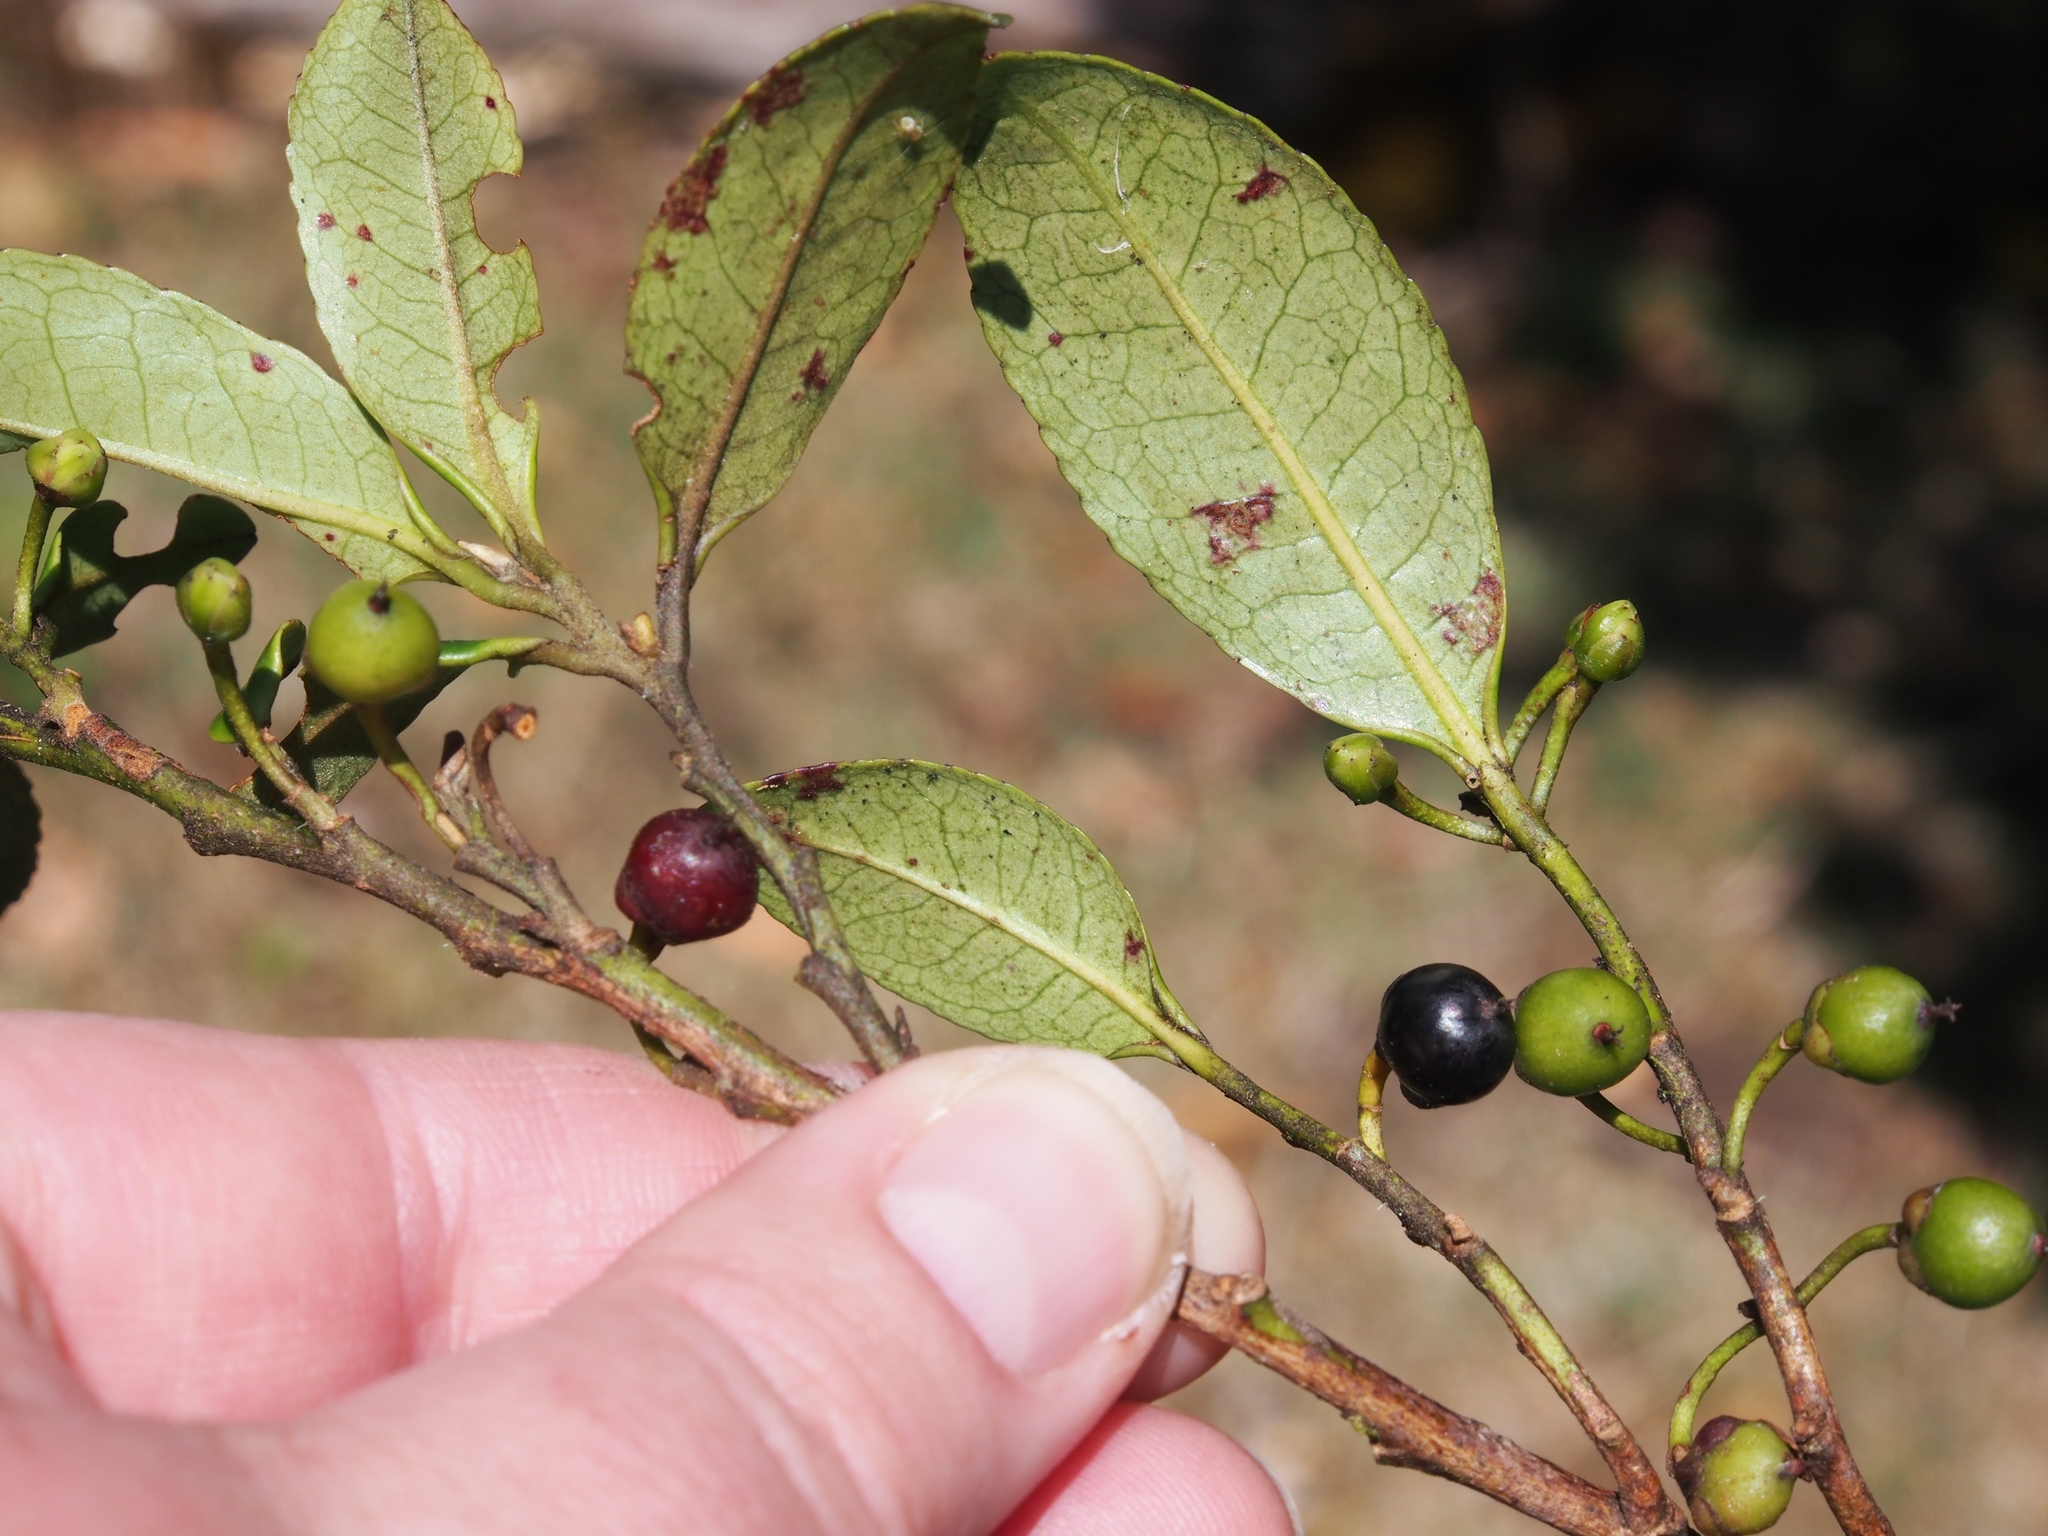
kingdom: Plantae
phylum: Tracheophyta
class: Magnoliopsida
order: Ericales
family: Pentaphylacaceae
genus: Cleyera
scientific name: Cleyera theaeoides
